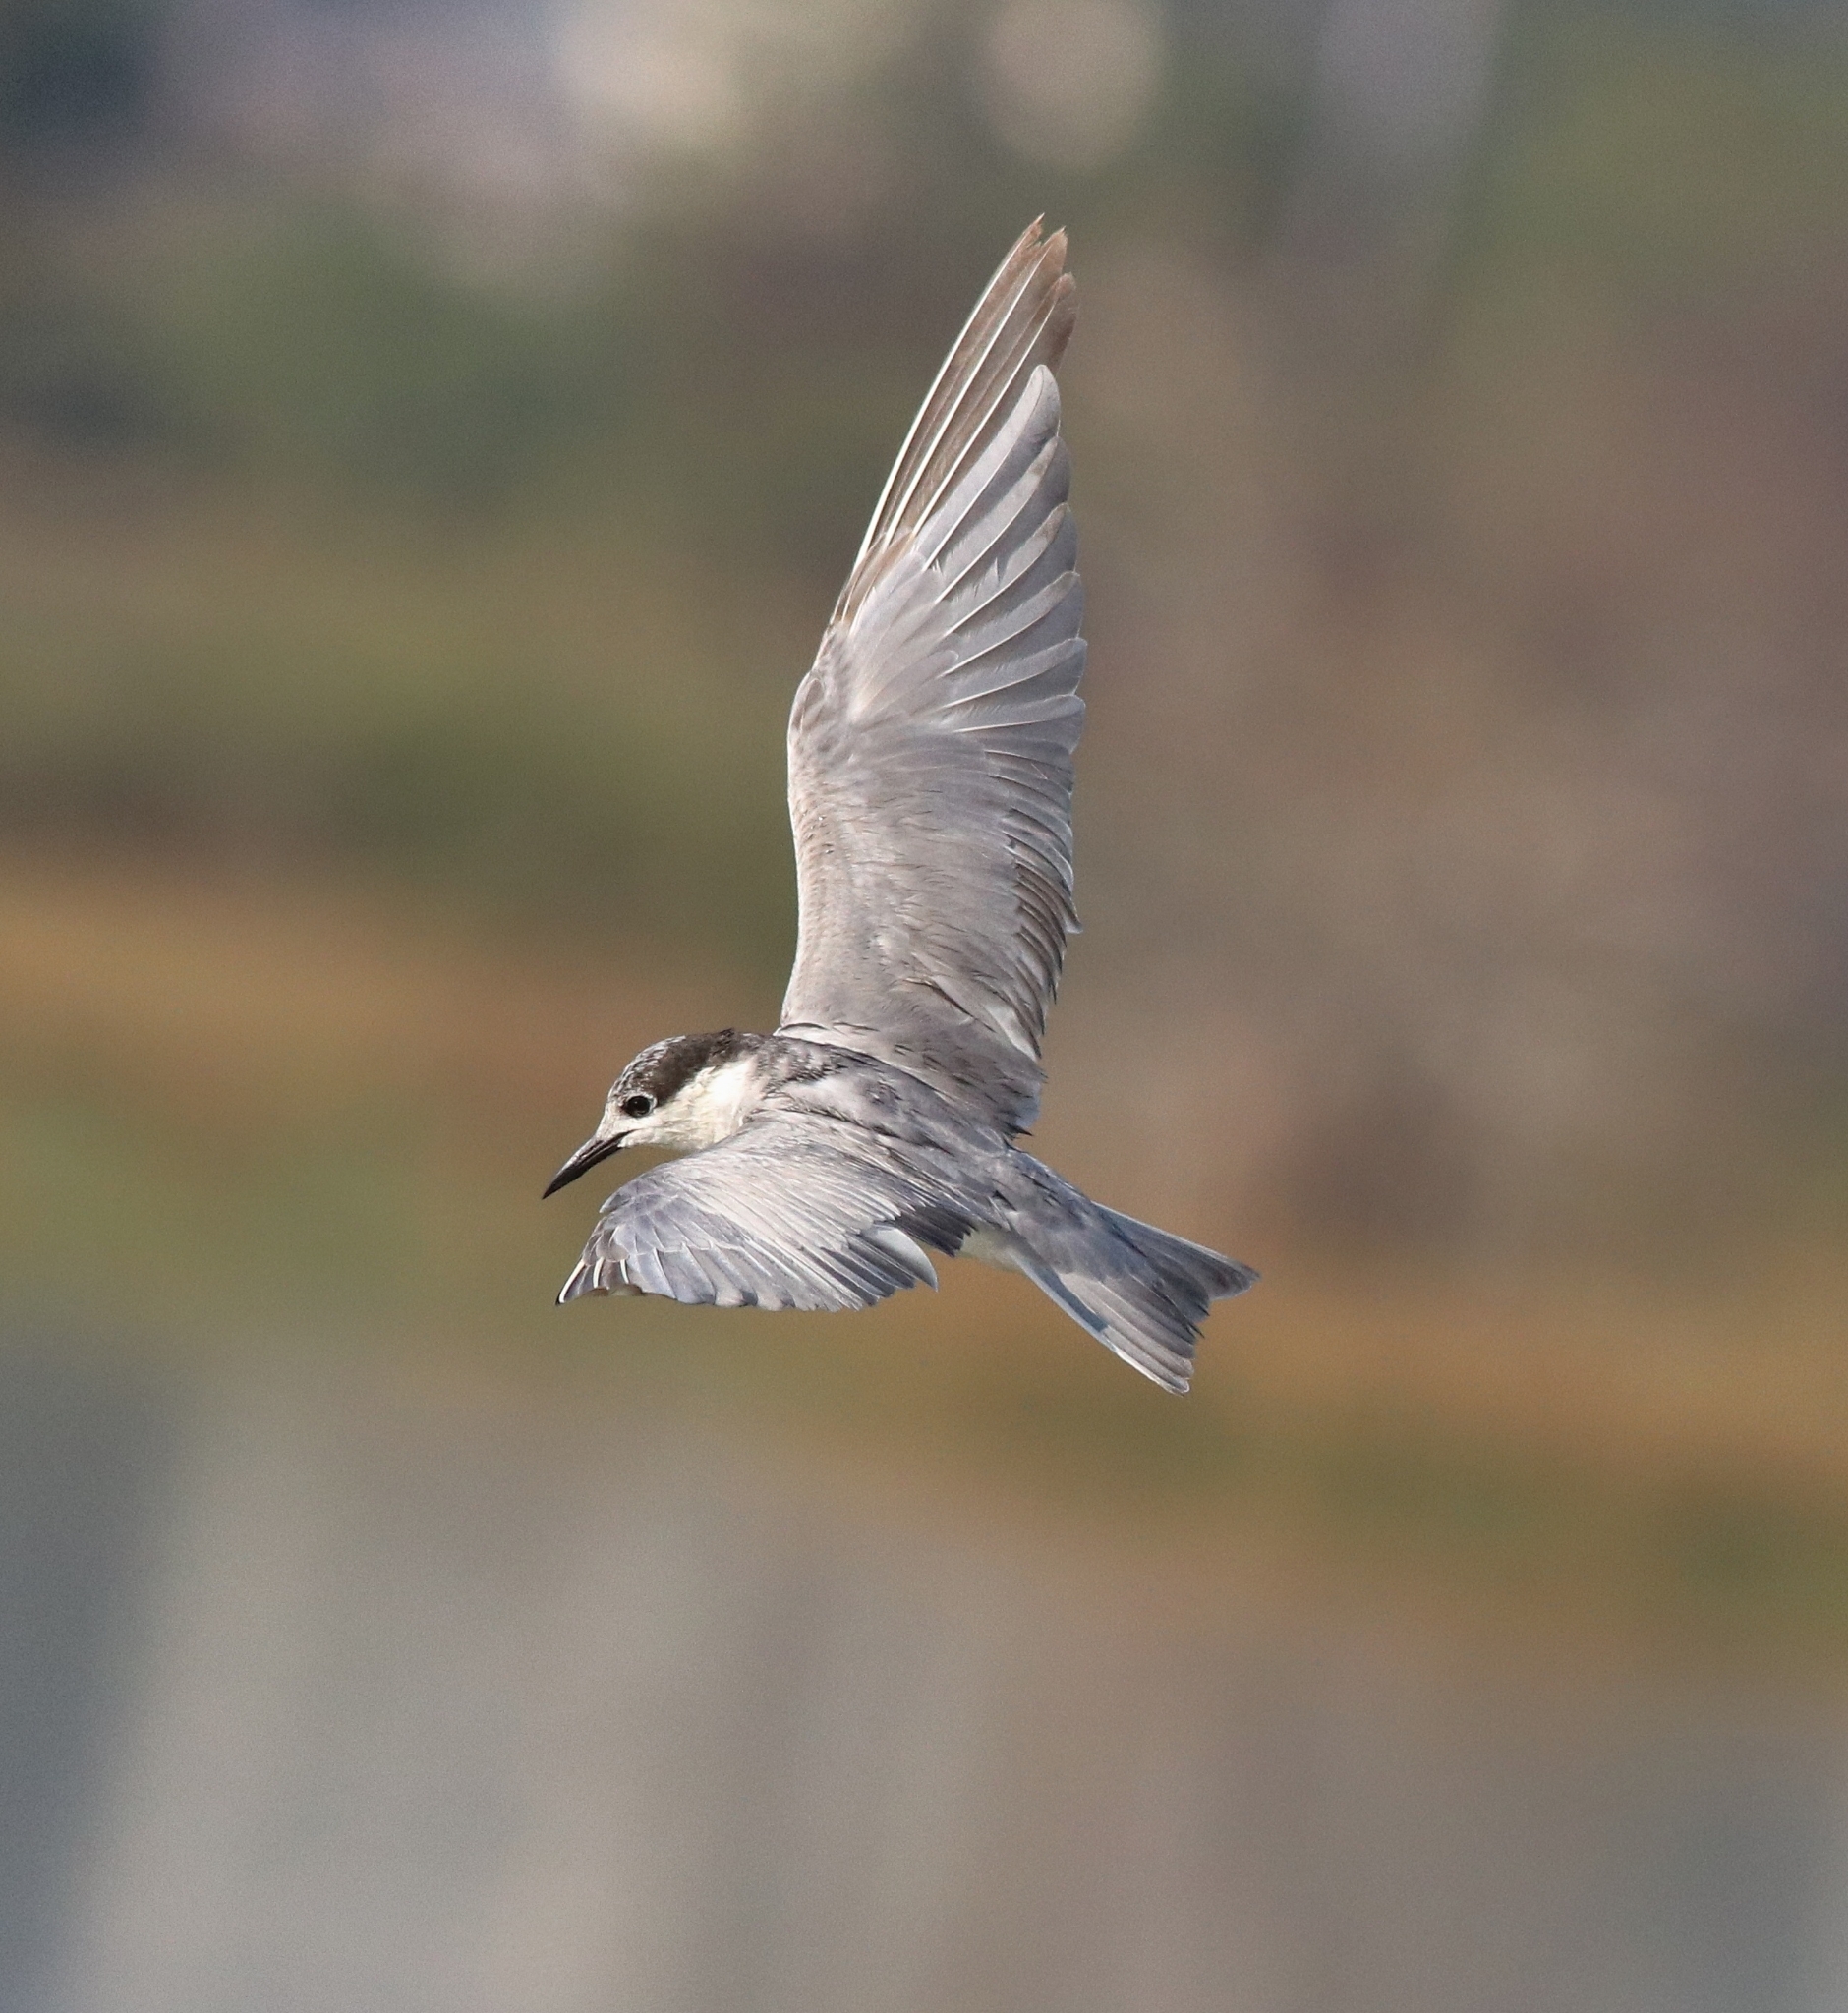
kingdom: Animalia
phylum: Chordata
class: Aves
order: Charadriiformes
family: Laridae
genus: Chlidonias
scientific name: Chlidonias hybrida
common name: Whiskered tern
